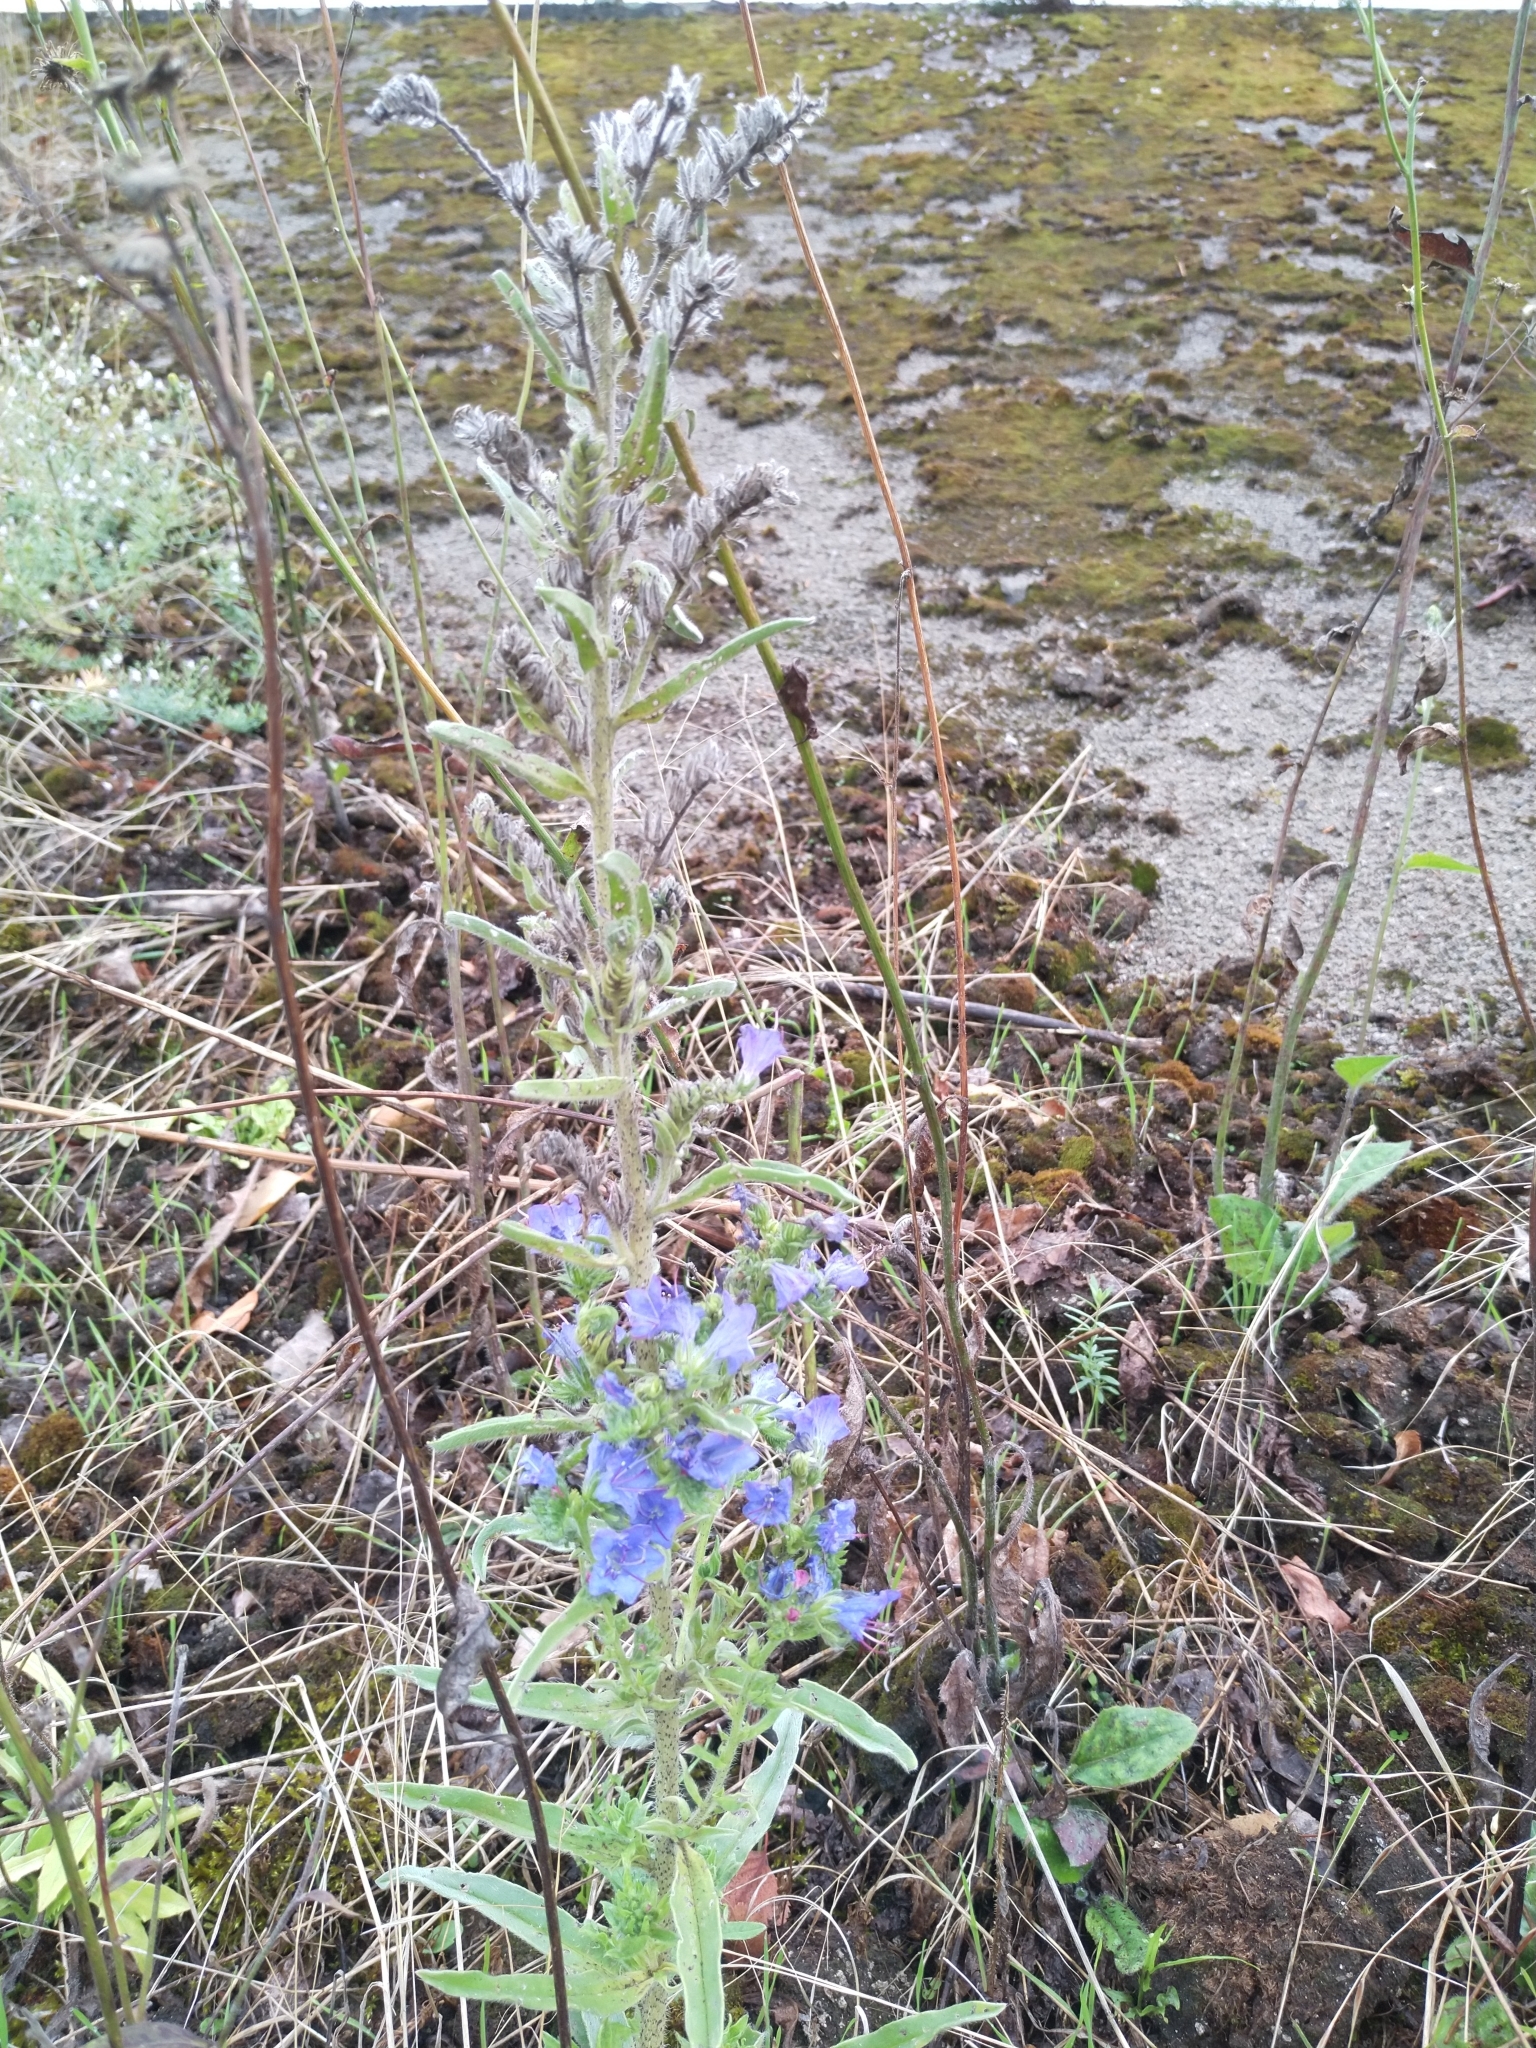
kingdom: Plantae
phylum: Tracheophyta
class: Magnoliopsida
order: Boraginales
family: Boraginaceae
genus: Echium
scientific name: Echium vulgare
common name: Common viper's bugloss
